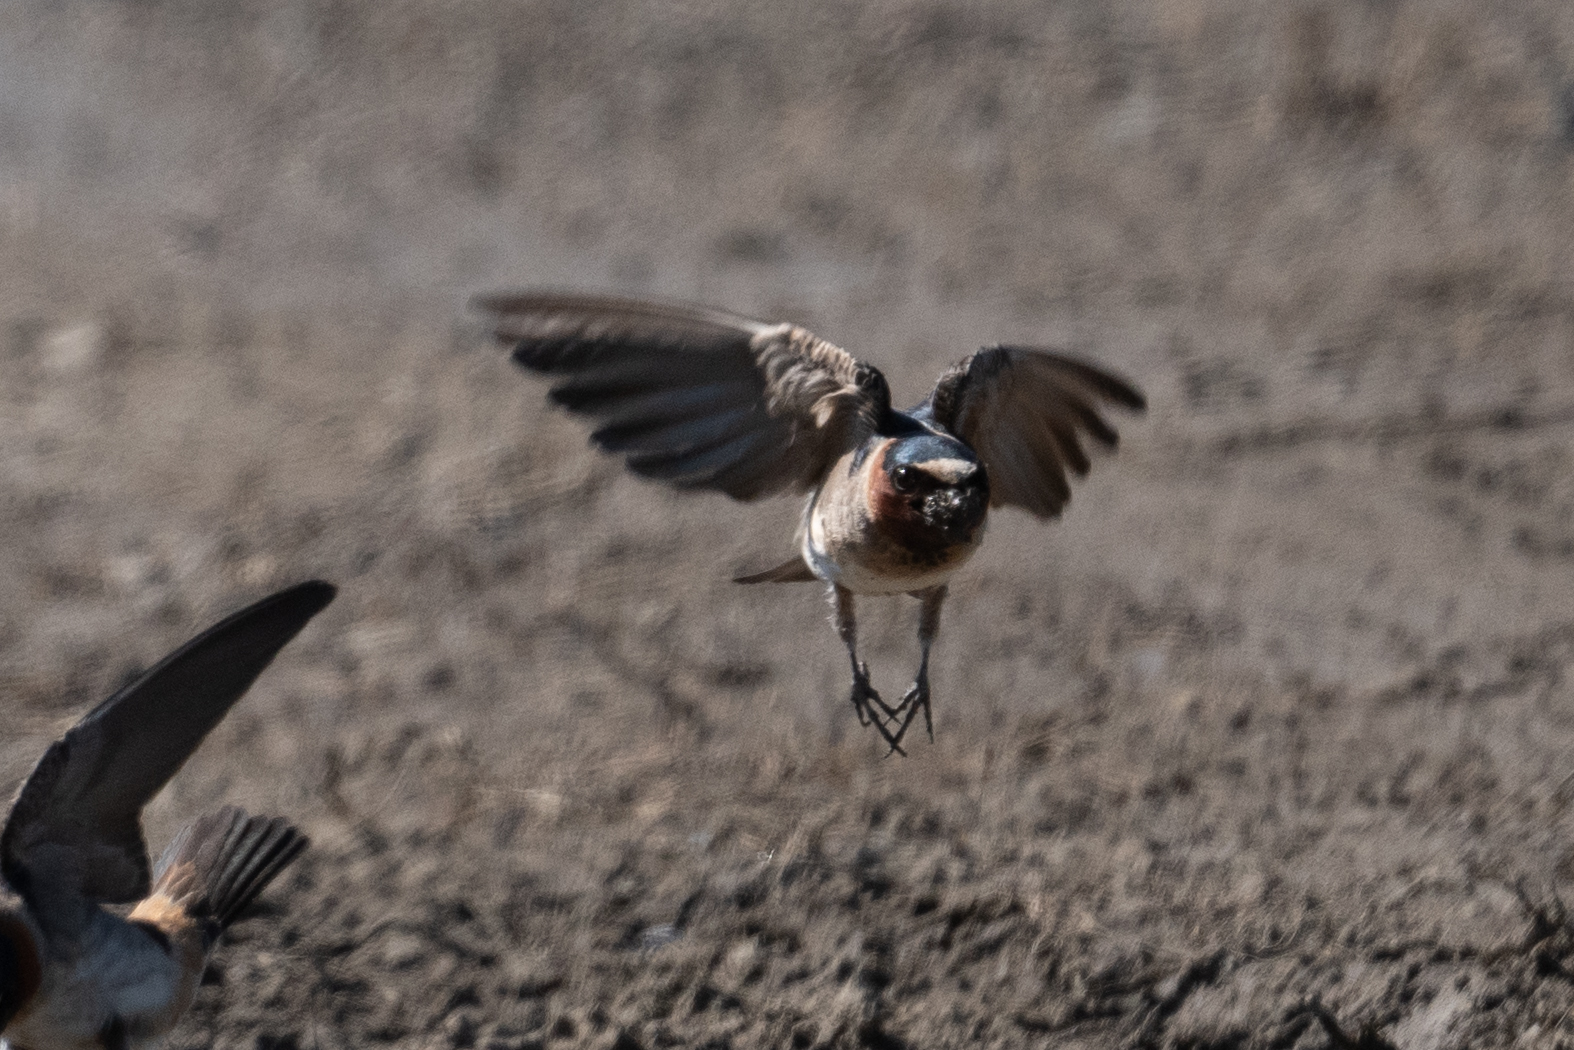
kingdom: Animalia
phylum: Chordata
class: Aves
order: Passeriformes
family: Hirundinidae
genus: Petrochelidon
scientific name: Petrochelidon pyrrhonota
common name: American cliff swallow
